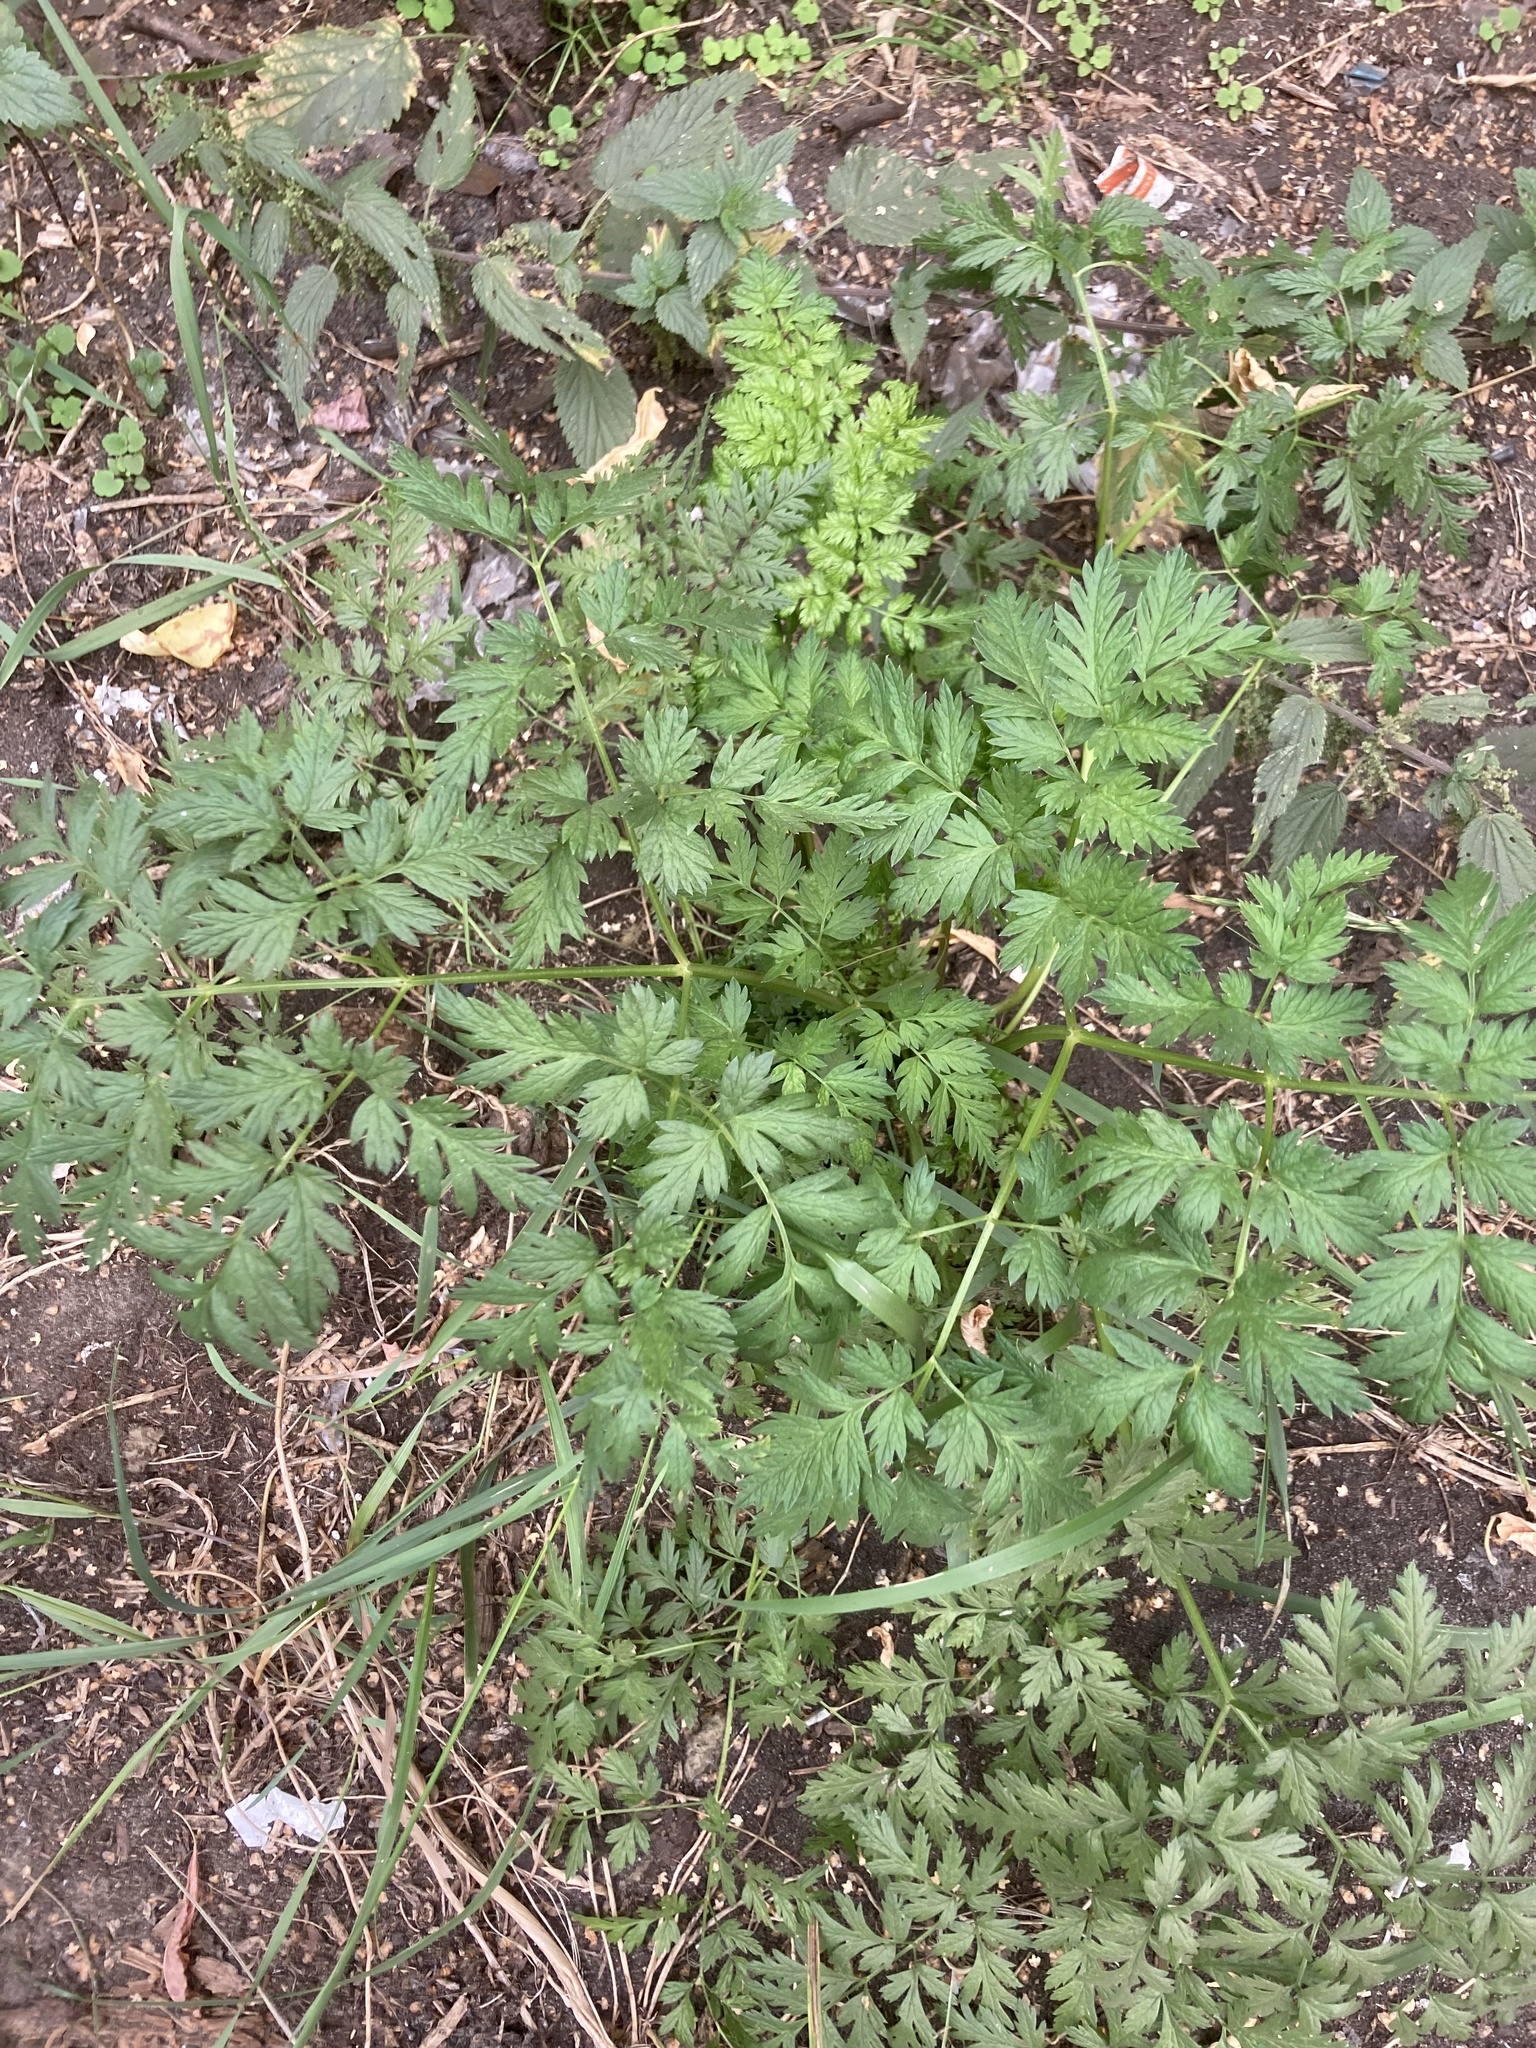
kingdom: Plantae
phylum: Tracheophyta
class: Magnoliopsida
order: Apiales
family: Apiaceae
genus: Anthriscus
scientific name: Anthriscus sylvestris
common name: Cow parsley
